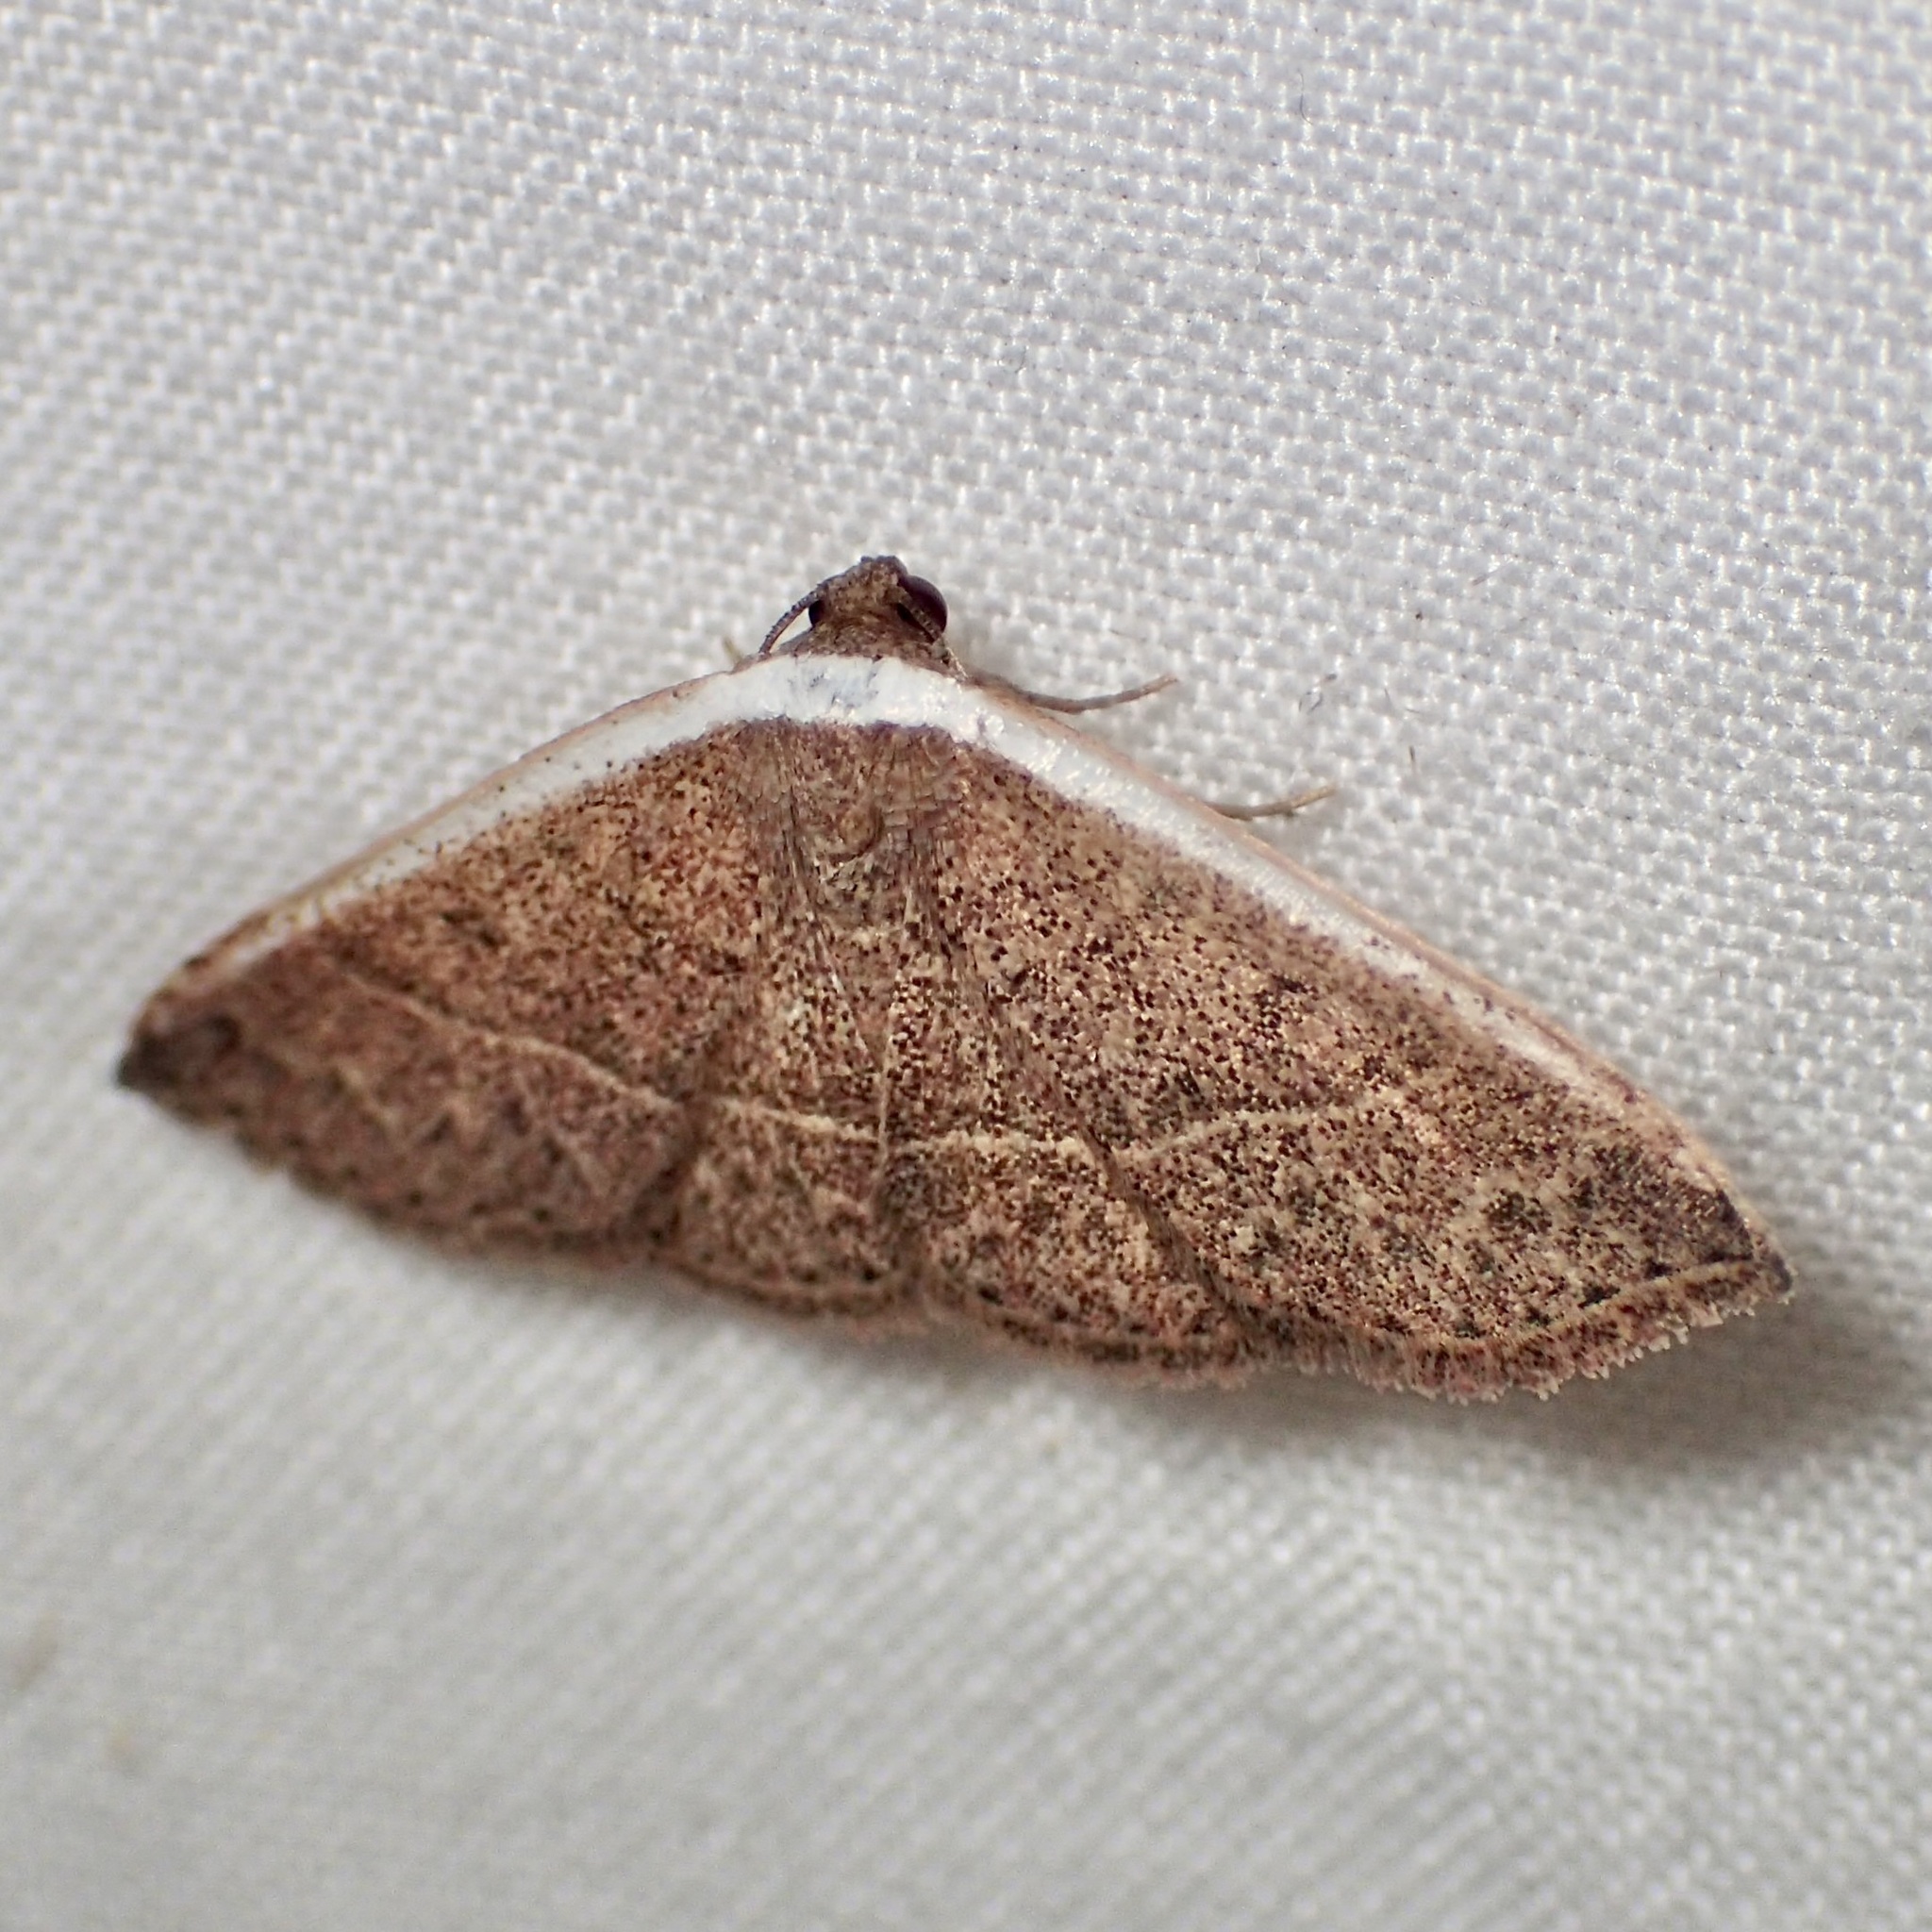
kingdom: Animalia
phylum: Arthropoda
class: Insecta
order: Lepidoptera
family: Noctuidae
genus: Oruza
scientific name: Oruza albocostata
